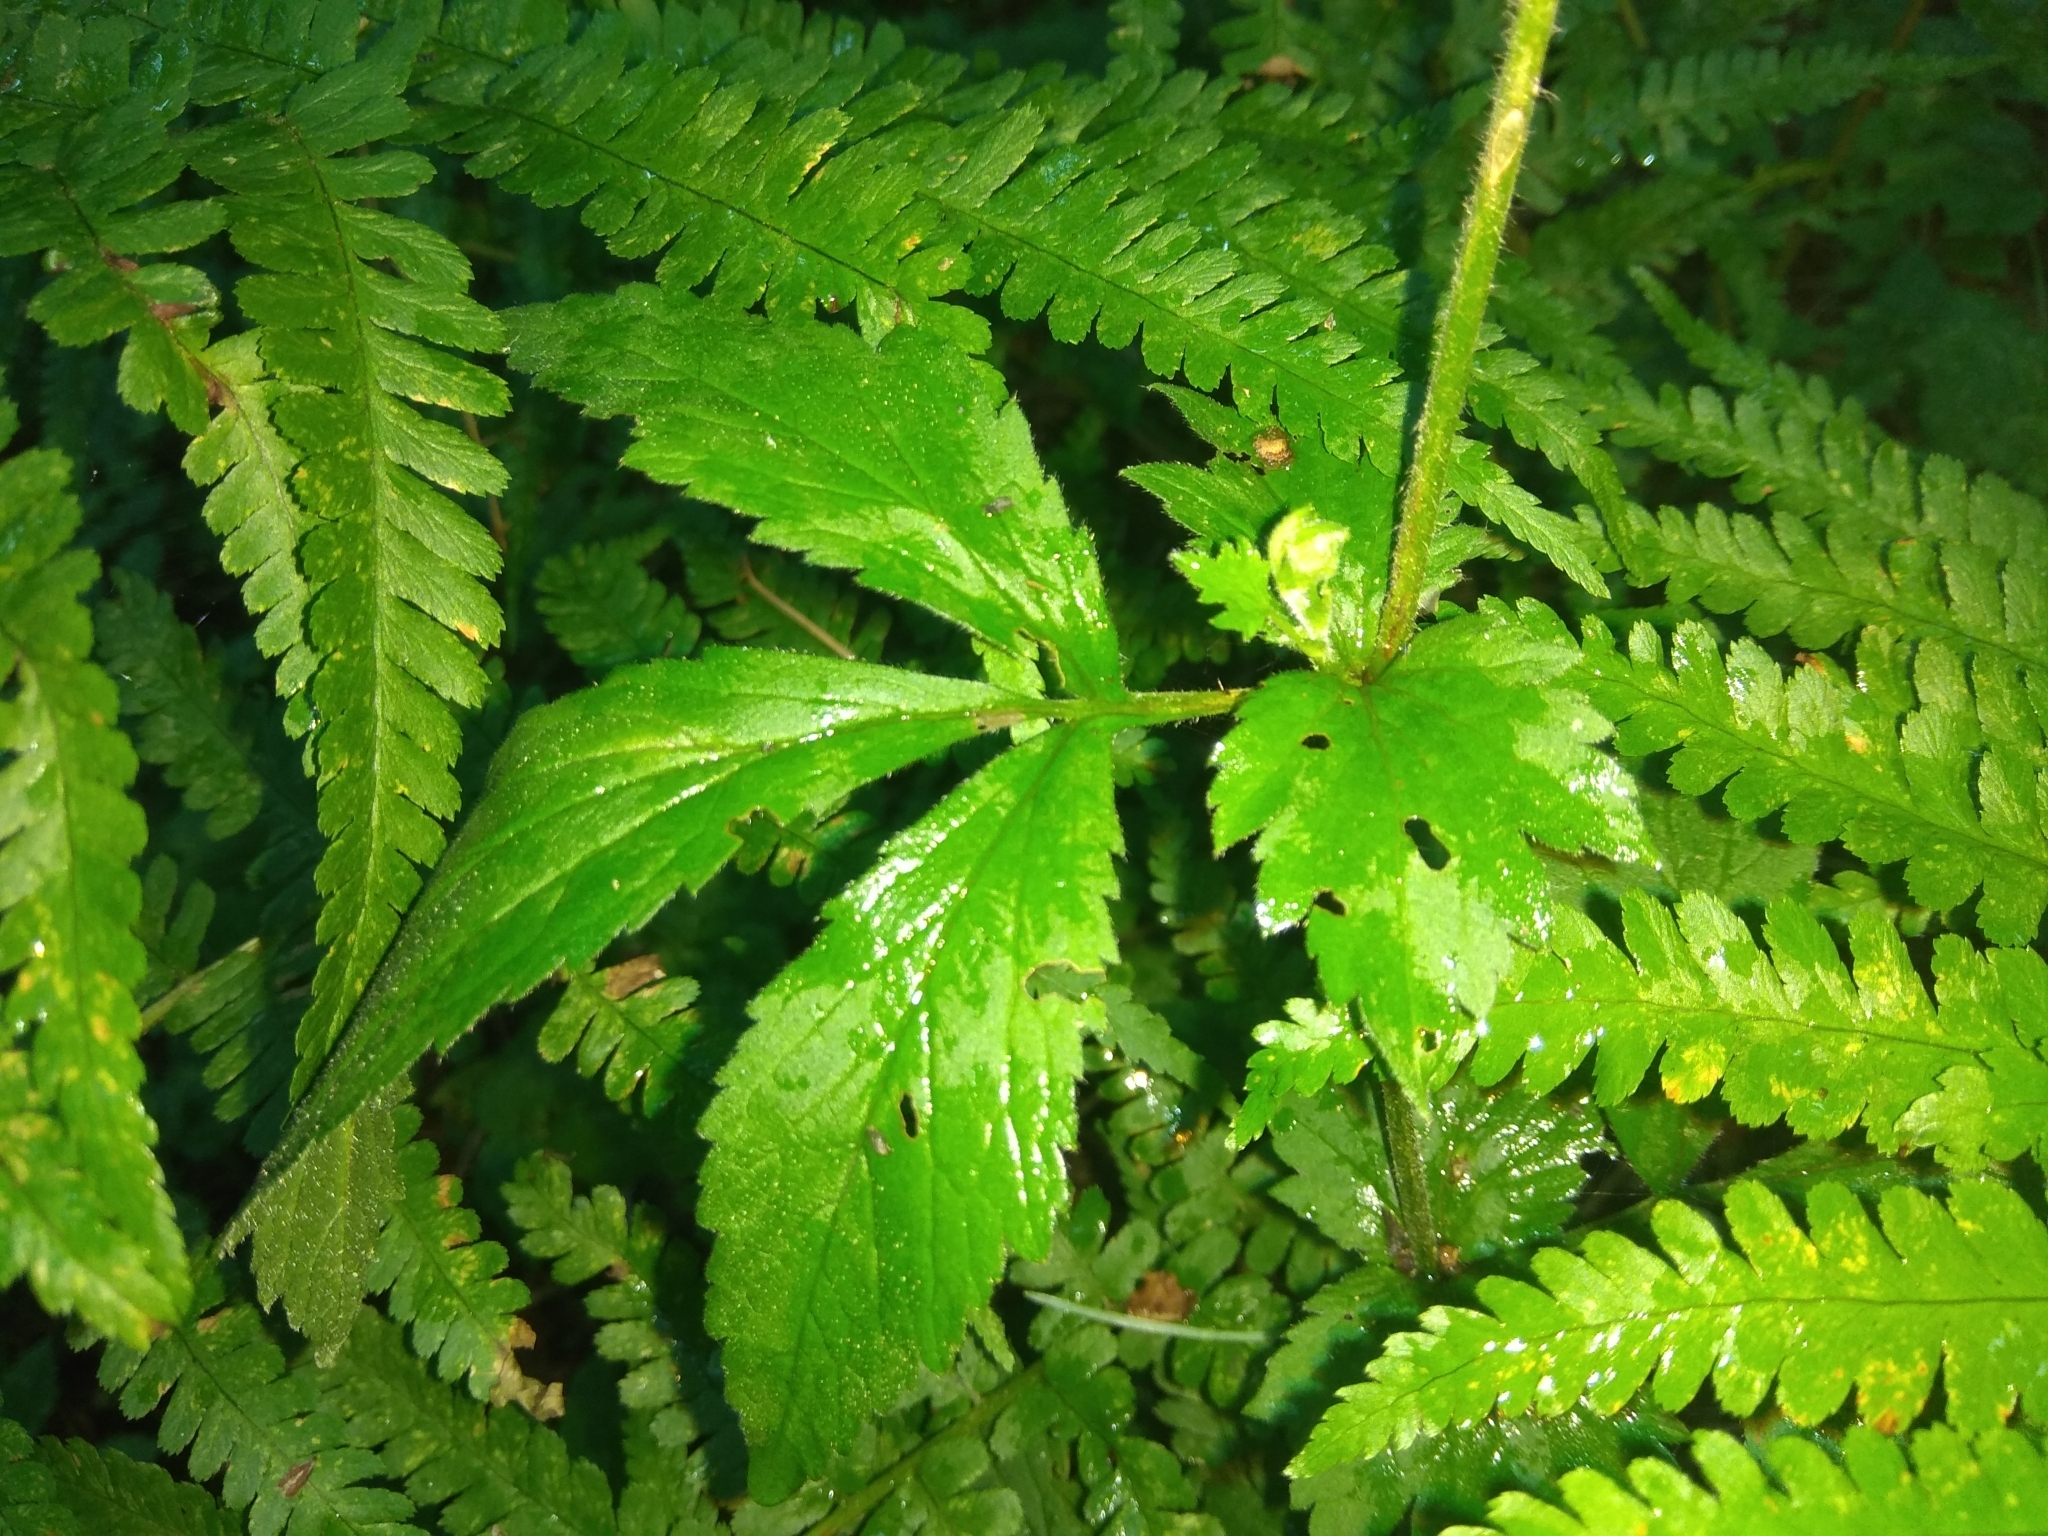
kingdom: Plantae
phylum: Tracheophyta
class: Magnoliopsida
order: Rosales
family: Rosaceae
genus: Geum
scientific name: Geum urbanum
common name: Wood avens
